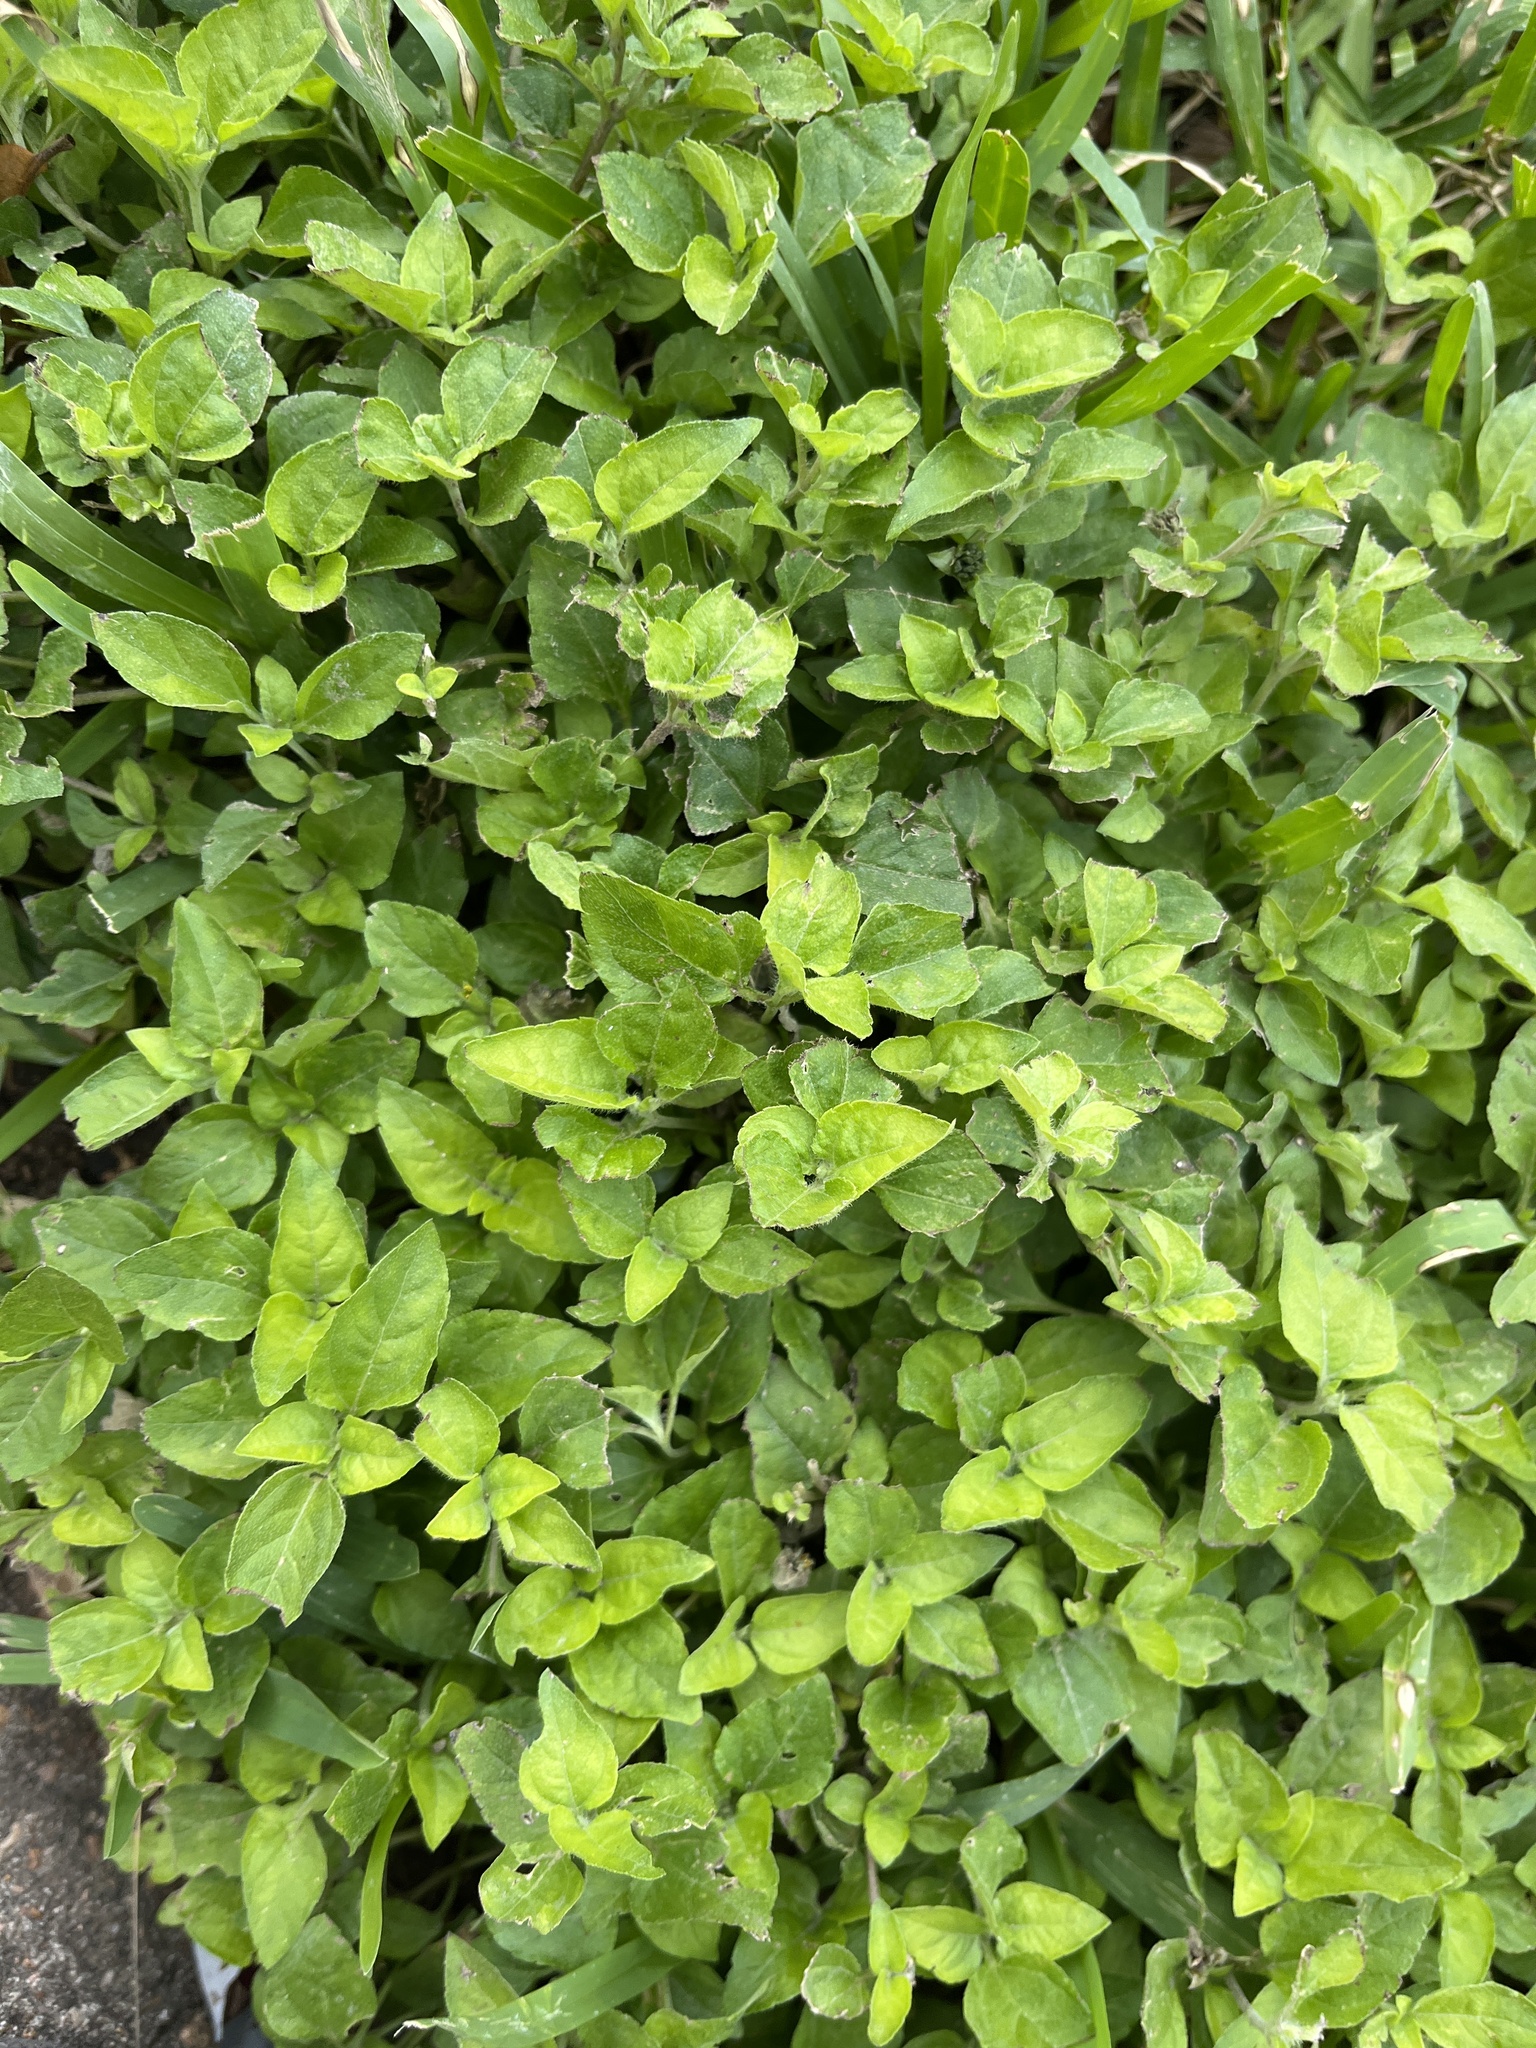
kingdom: Plantae
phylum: Tracheophyta
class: Magnoliopsida
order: Asterales
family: Asteraceae
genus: Calyptocarpus
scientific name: Calyptocarpus vialis
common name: Straggler daisy
